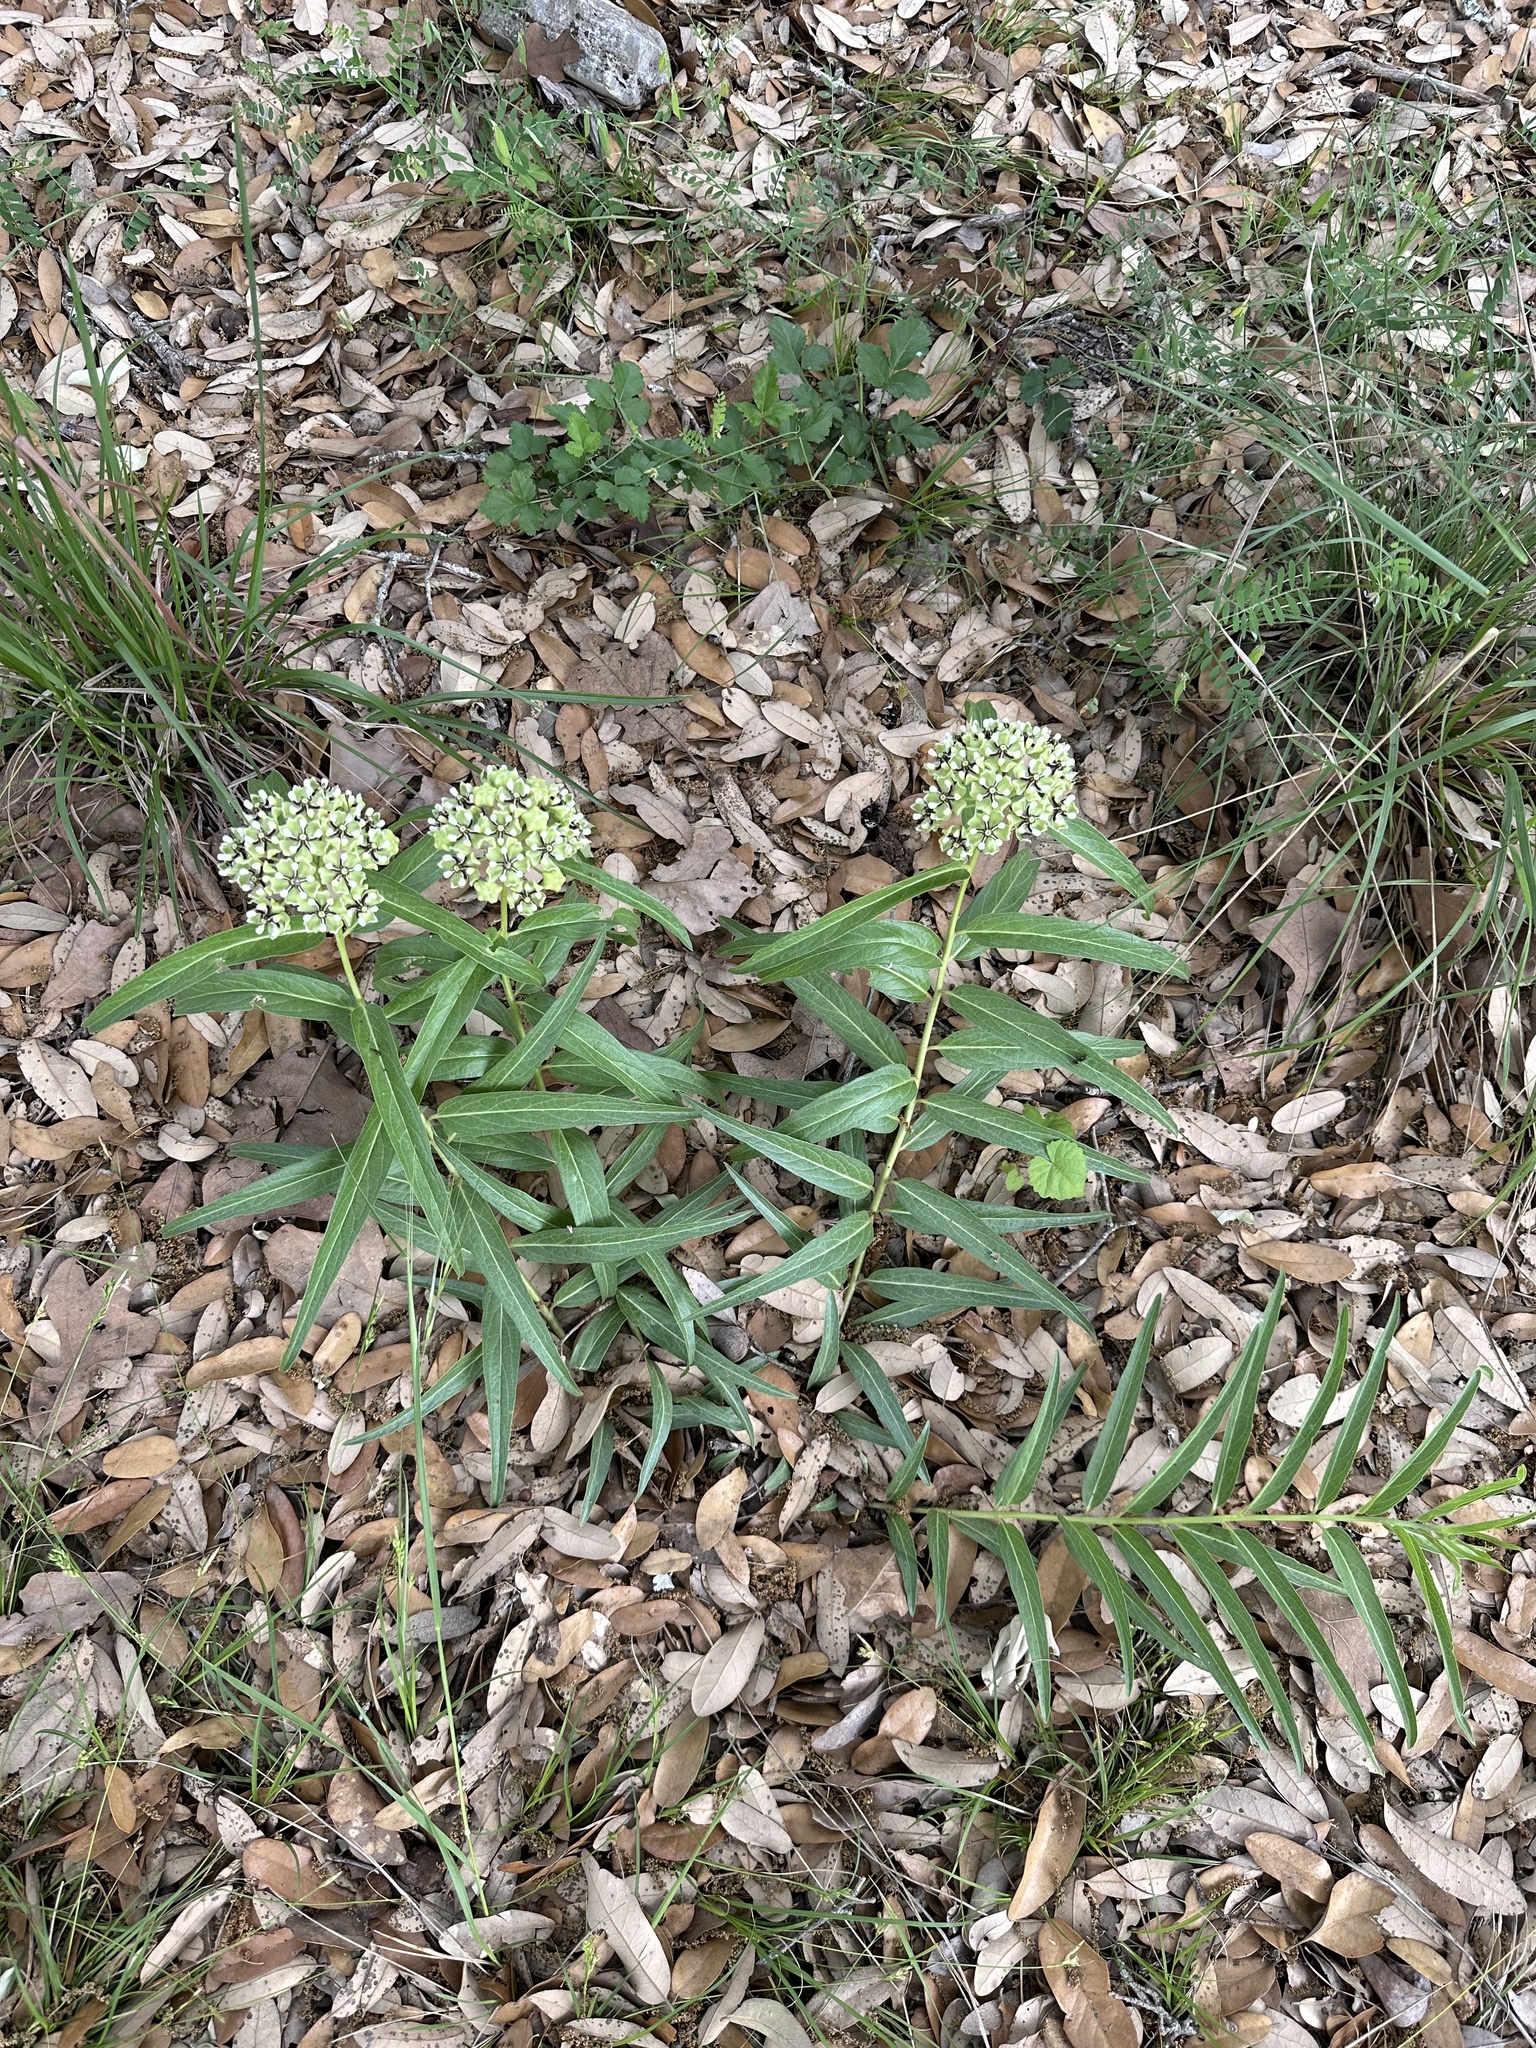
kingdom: Plantae
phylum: Tracheophyta
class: Magnoliopsida
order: Gentianales
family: Apocynaceae
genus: Asclepias
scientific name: Asclepias asperula
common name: Antelope horns
